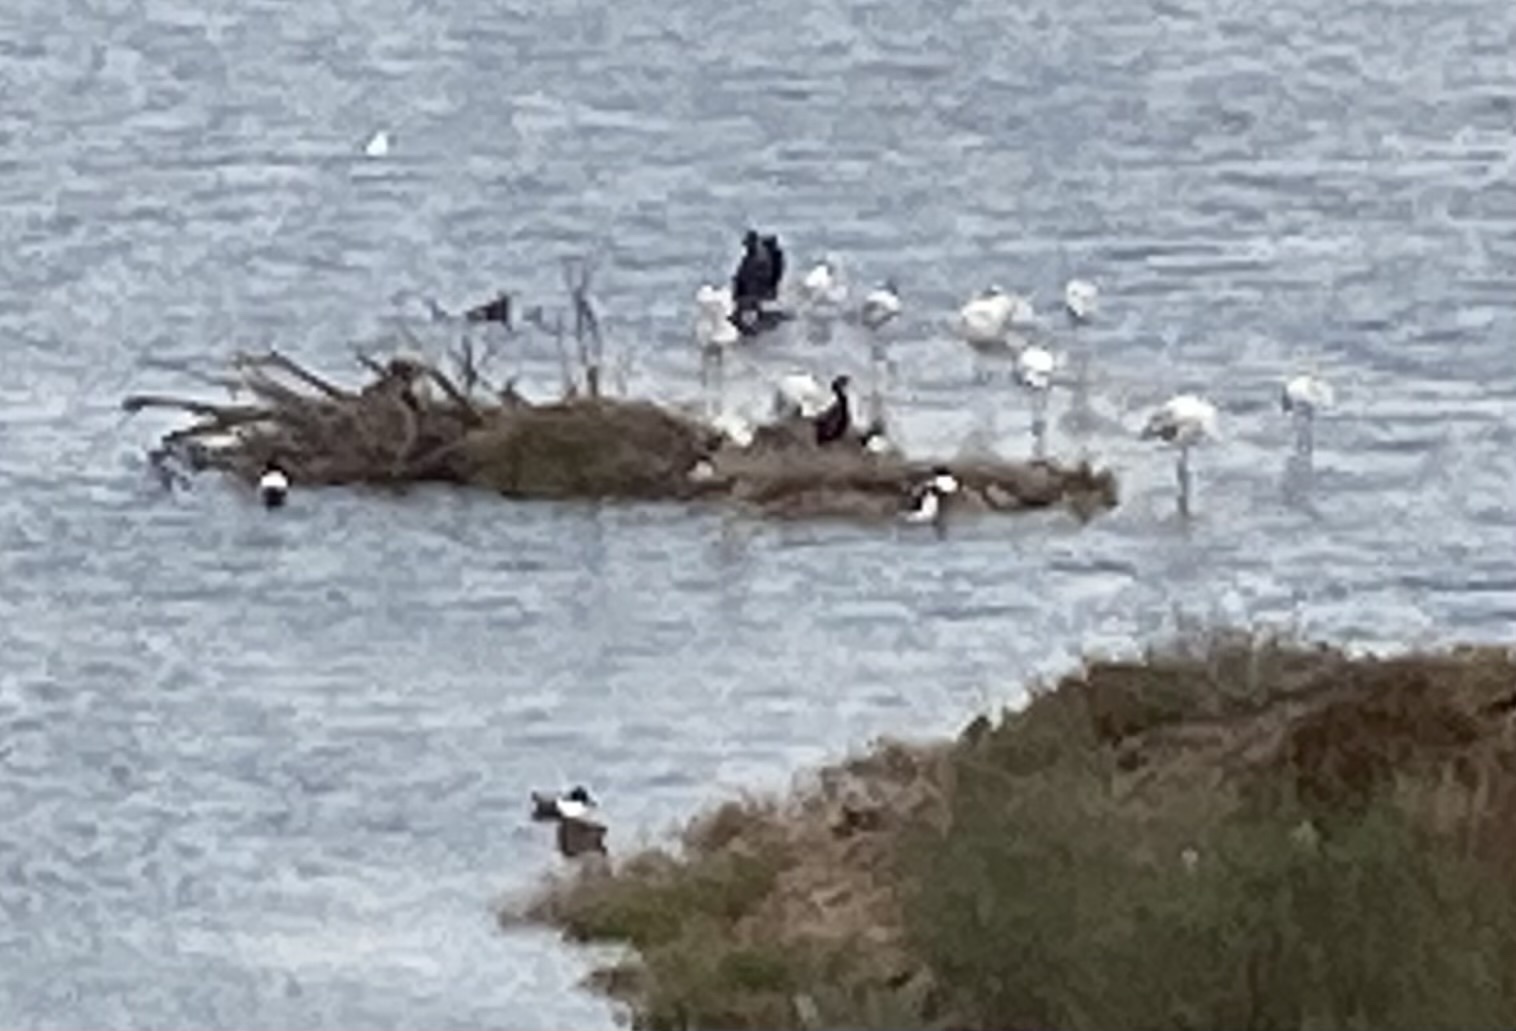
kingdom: Animalia
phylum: Chordata
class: Aves
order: Anseriformes
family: Anatidae
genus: Spatula
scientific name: Spatula clypeata
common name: Northern shoveler
